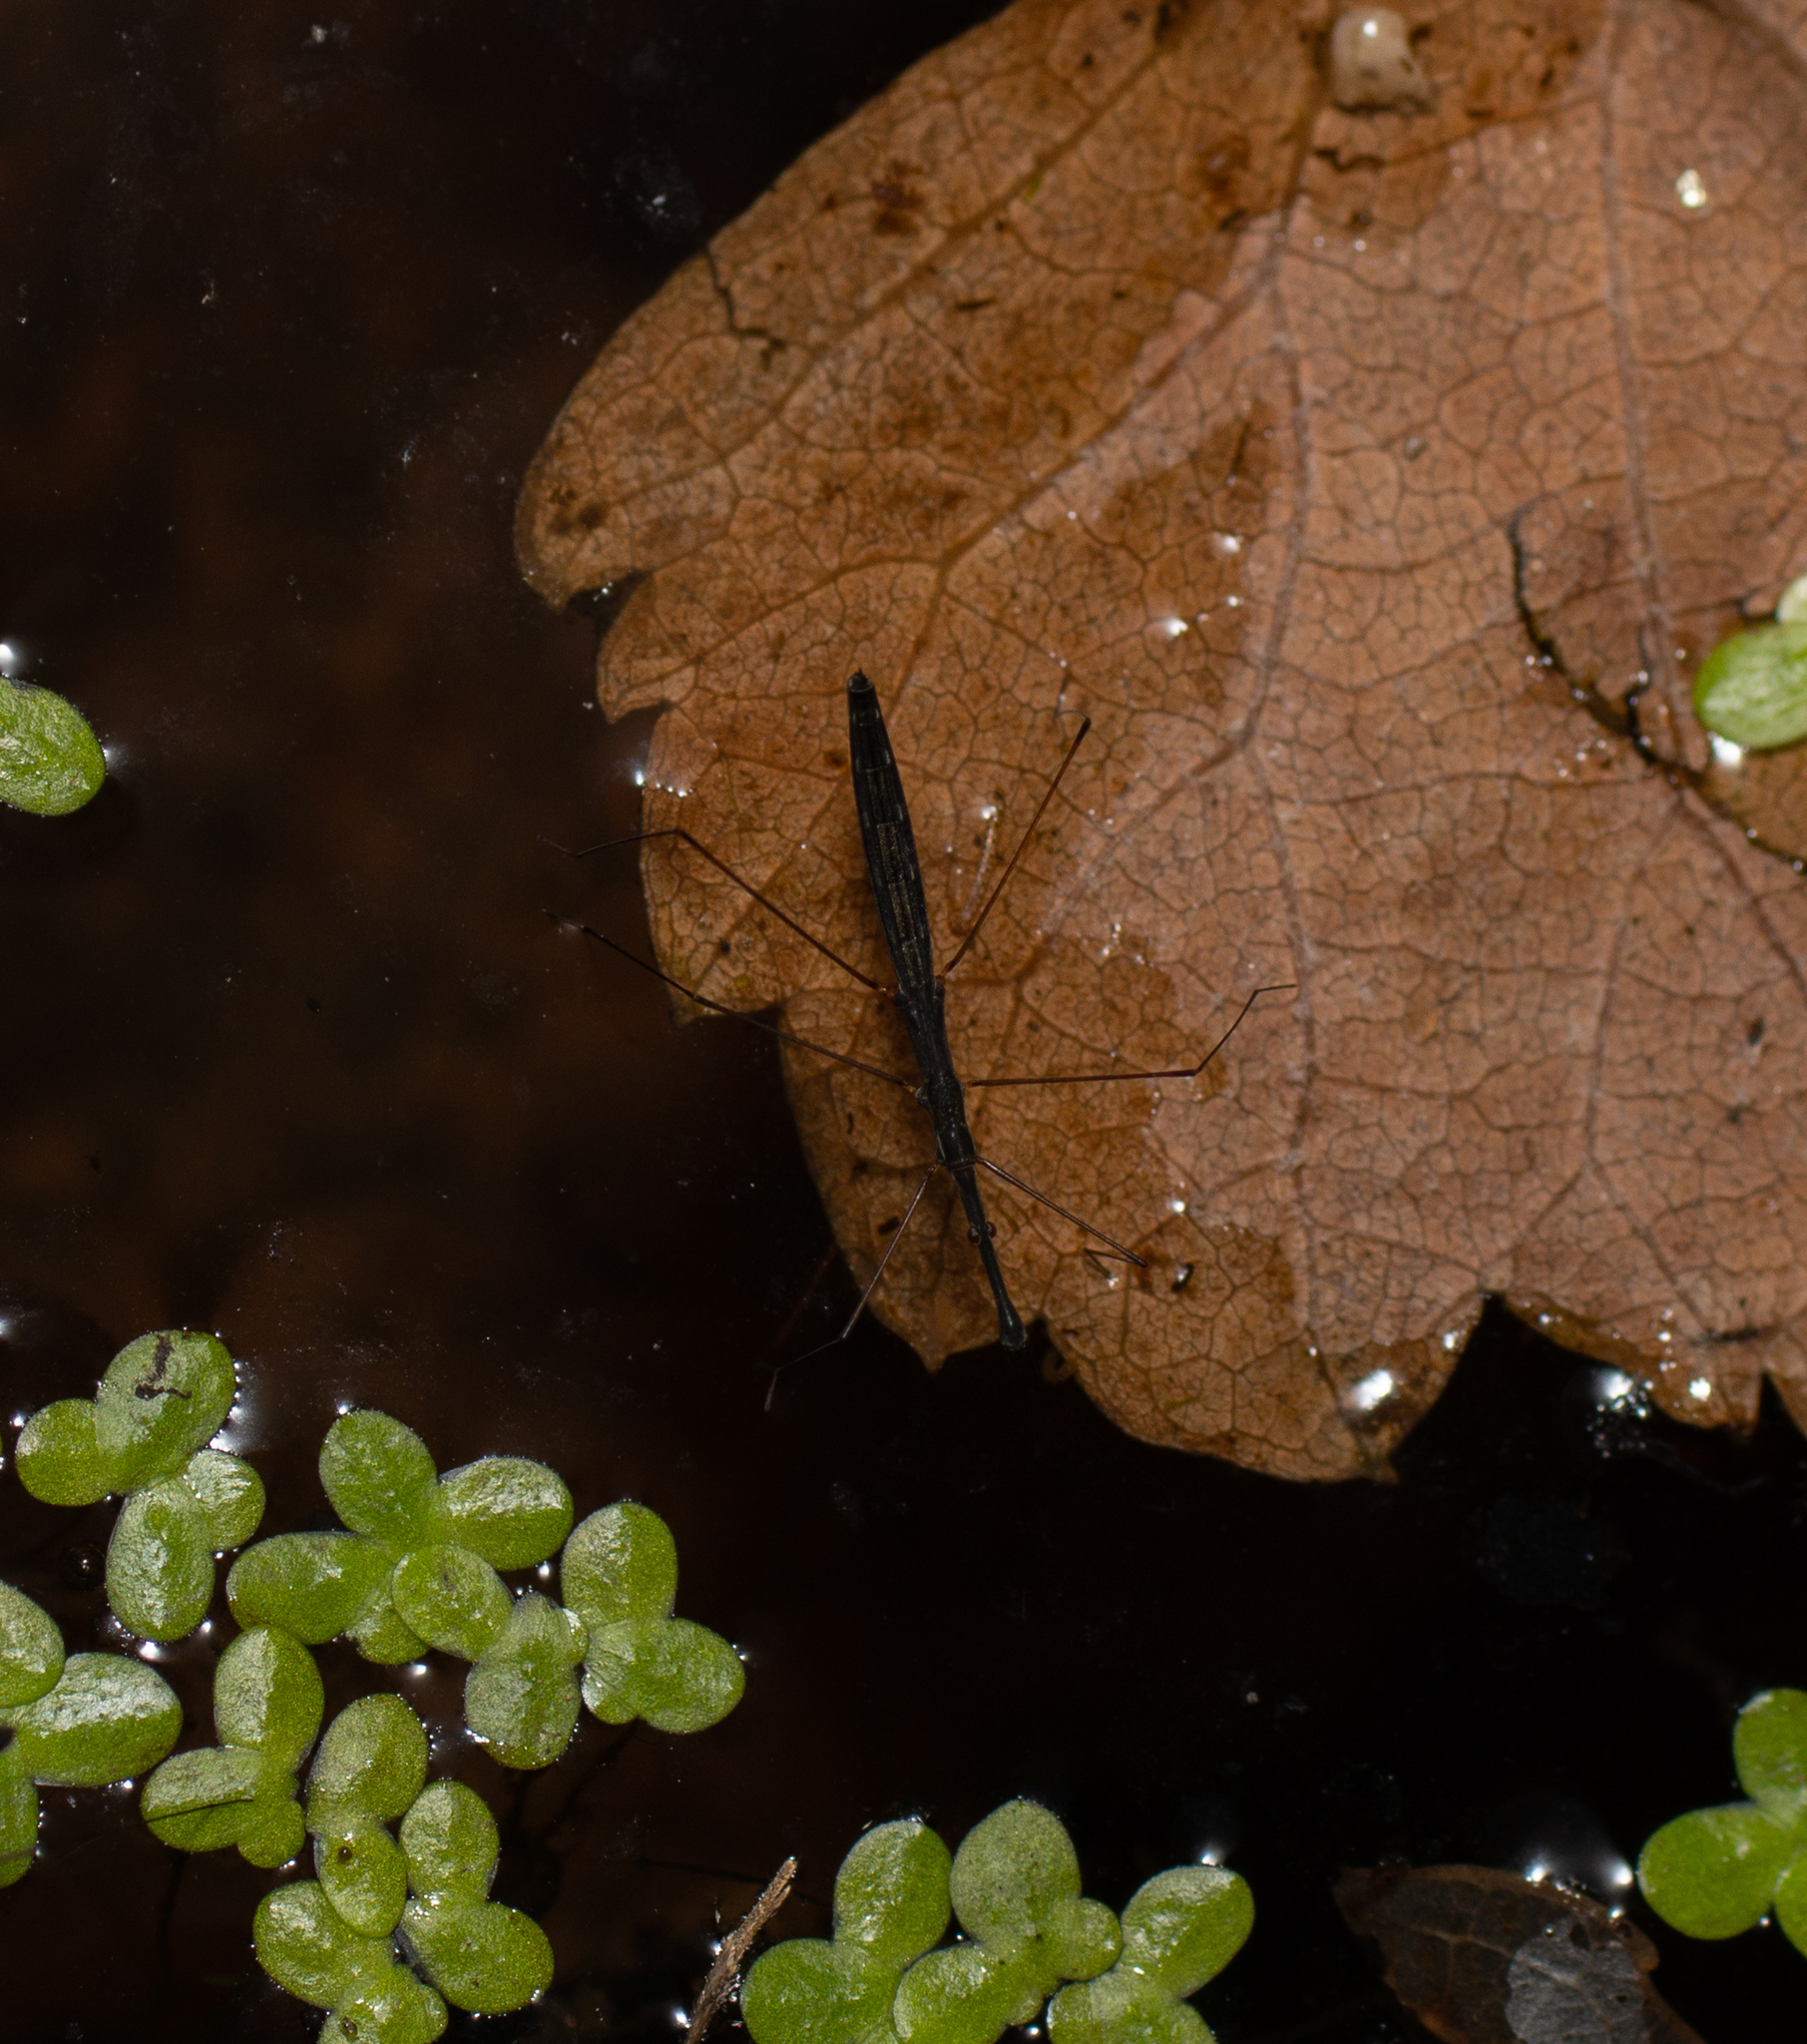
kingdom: Animalia
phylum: Arthropoda
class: Insecta
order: Hemiptera
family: Hydrometridae
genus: Hydrometra
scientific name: Hydrometra stagnorum
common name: Water measurer
